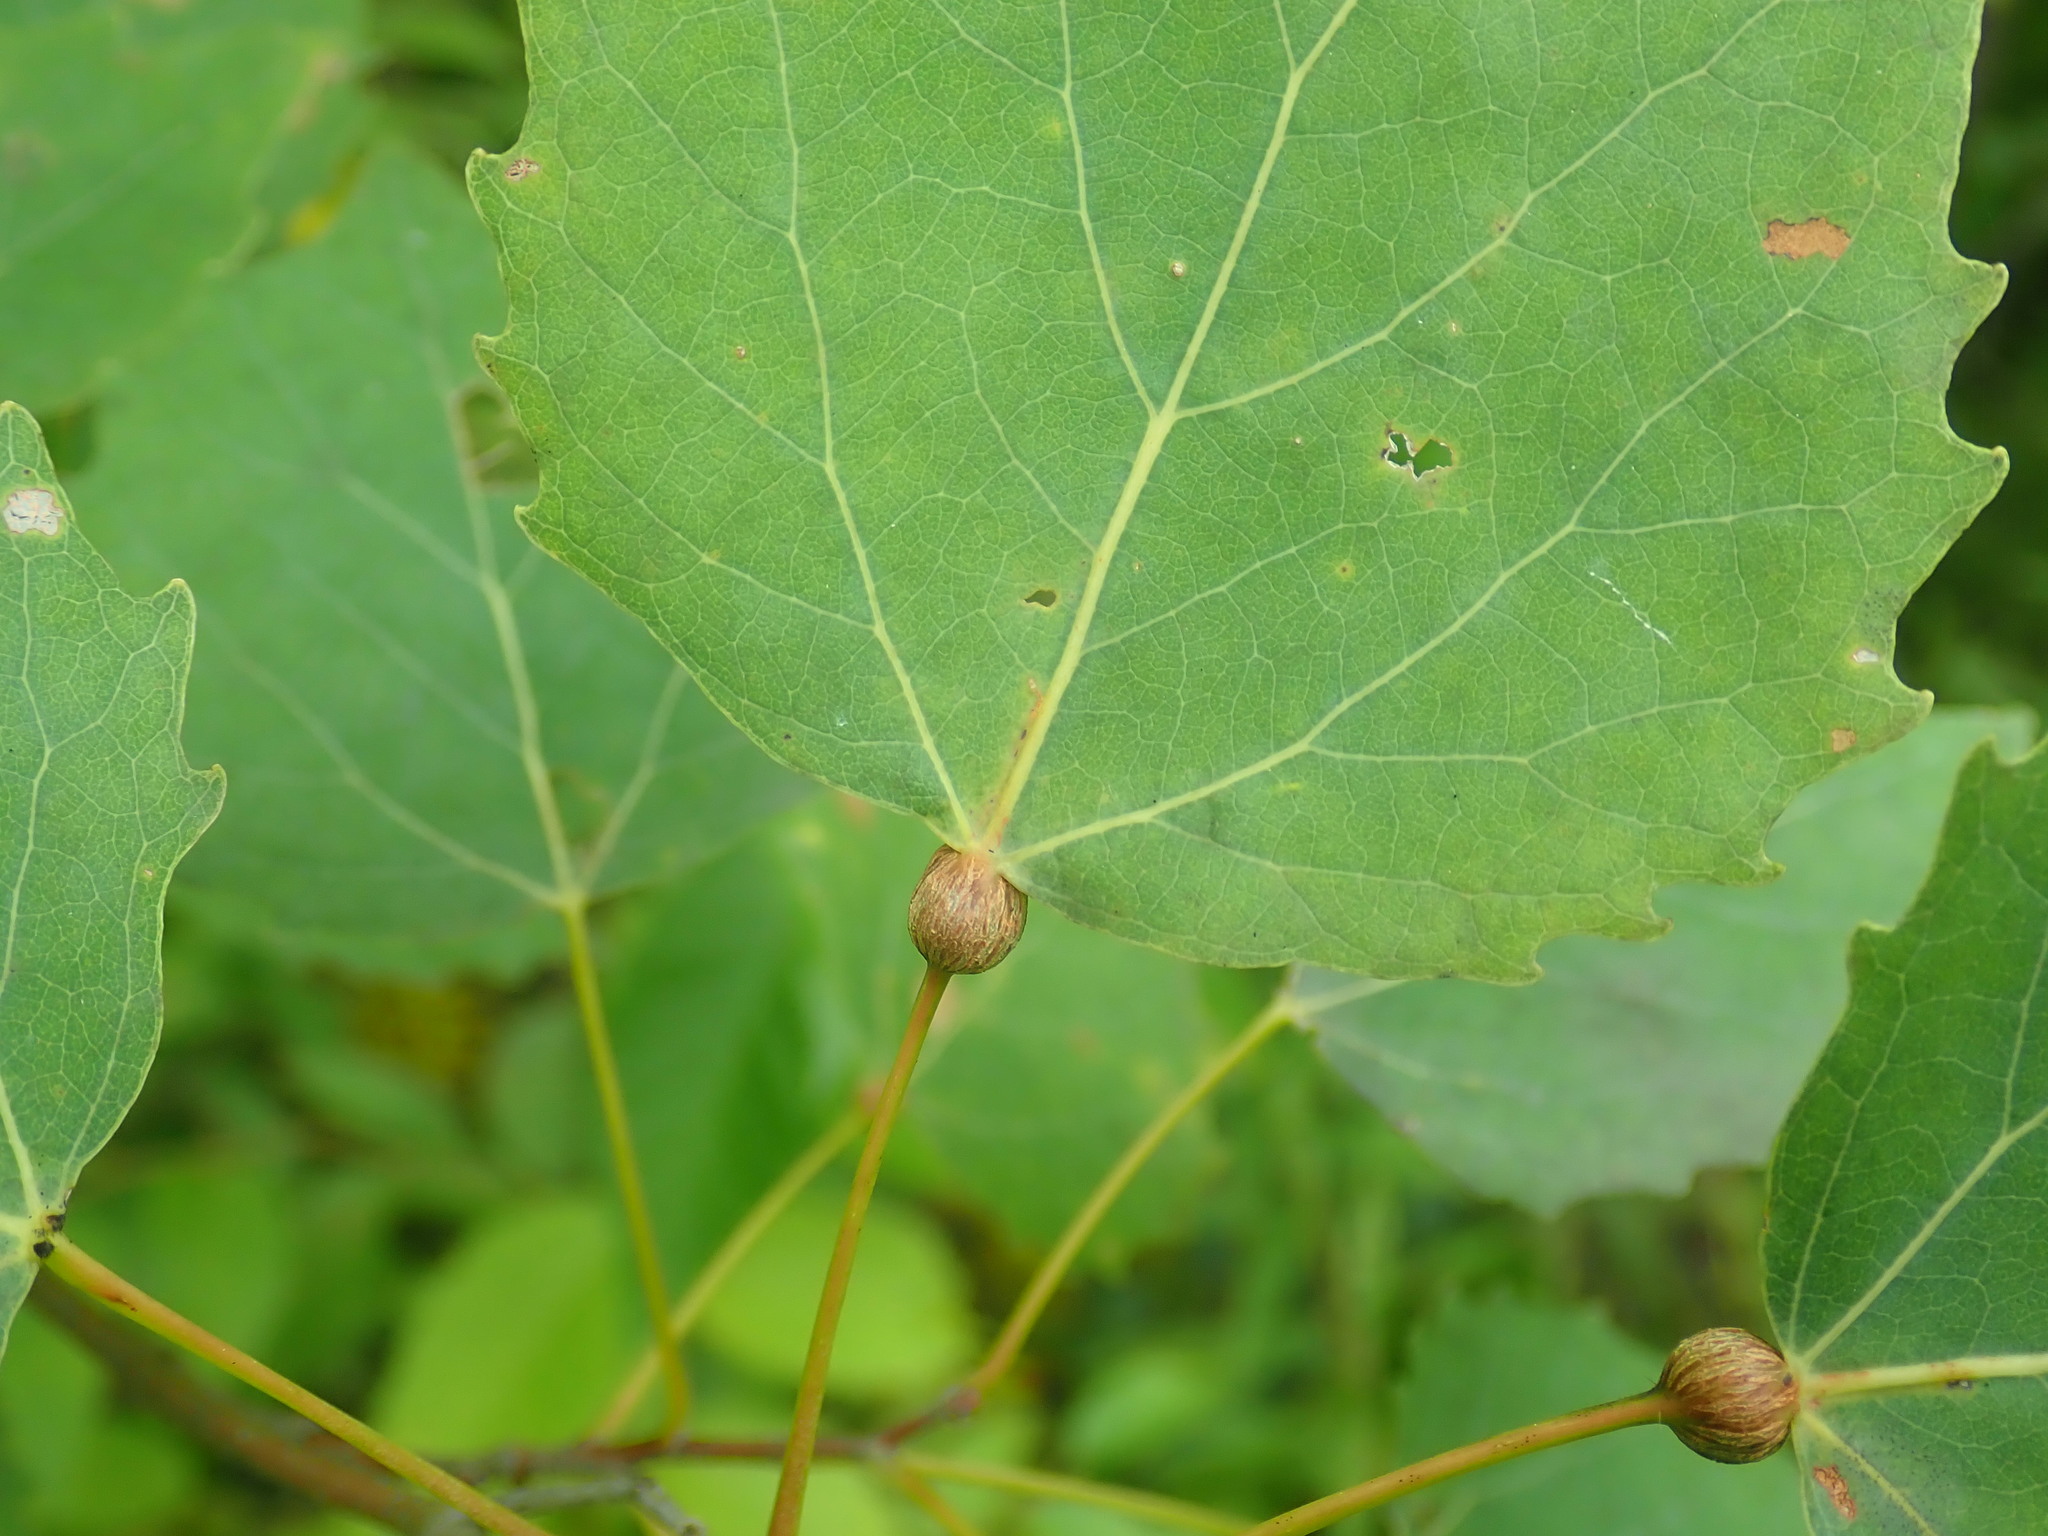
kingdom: Animalia
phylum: Arthropoda
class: Insecta
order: Lepidoptera
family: Nepticulidae
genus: Ectoedemia
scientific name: Ectoedemia populella
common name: Aspen petiole gall moth
